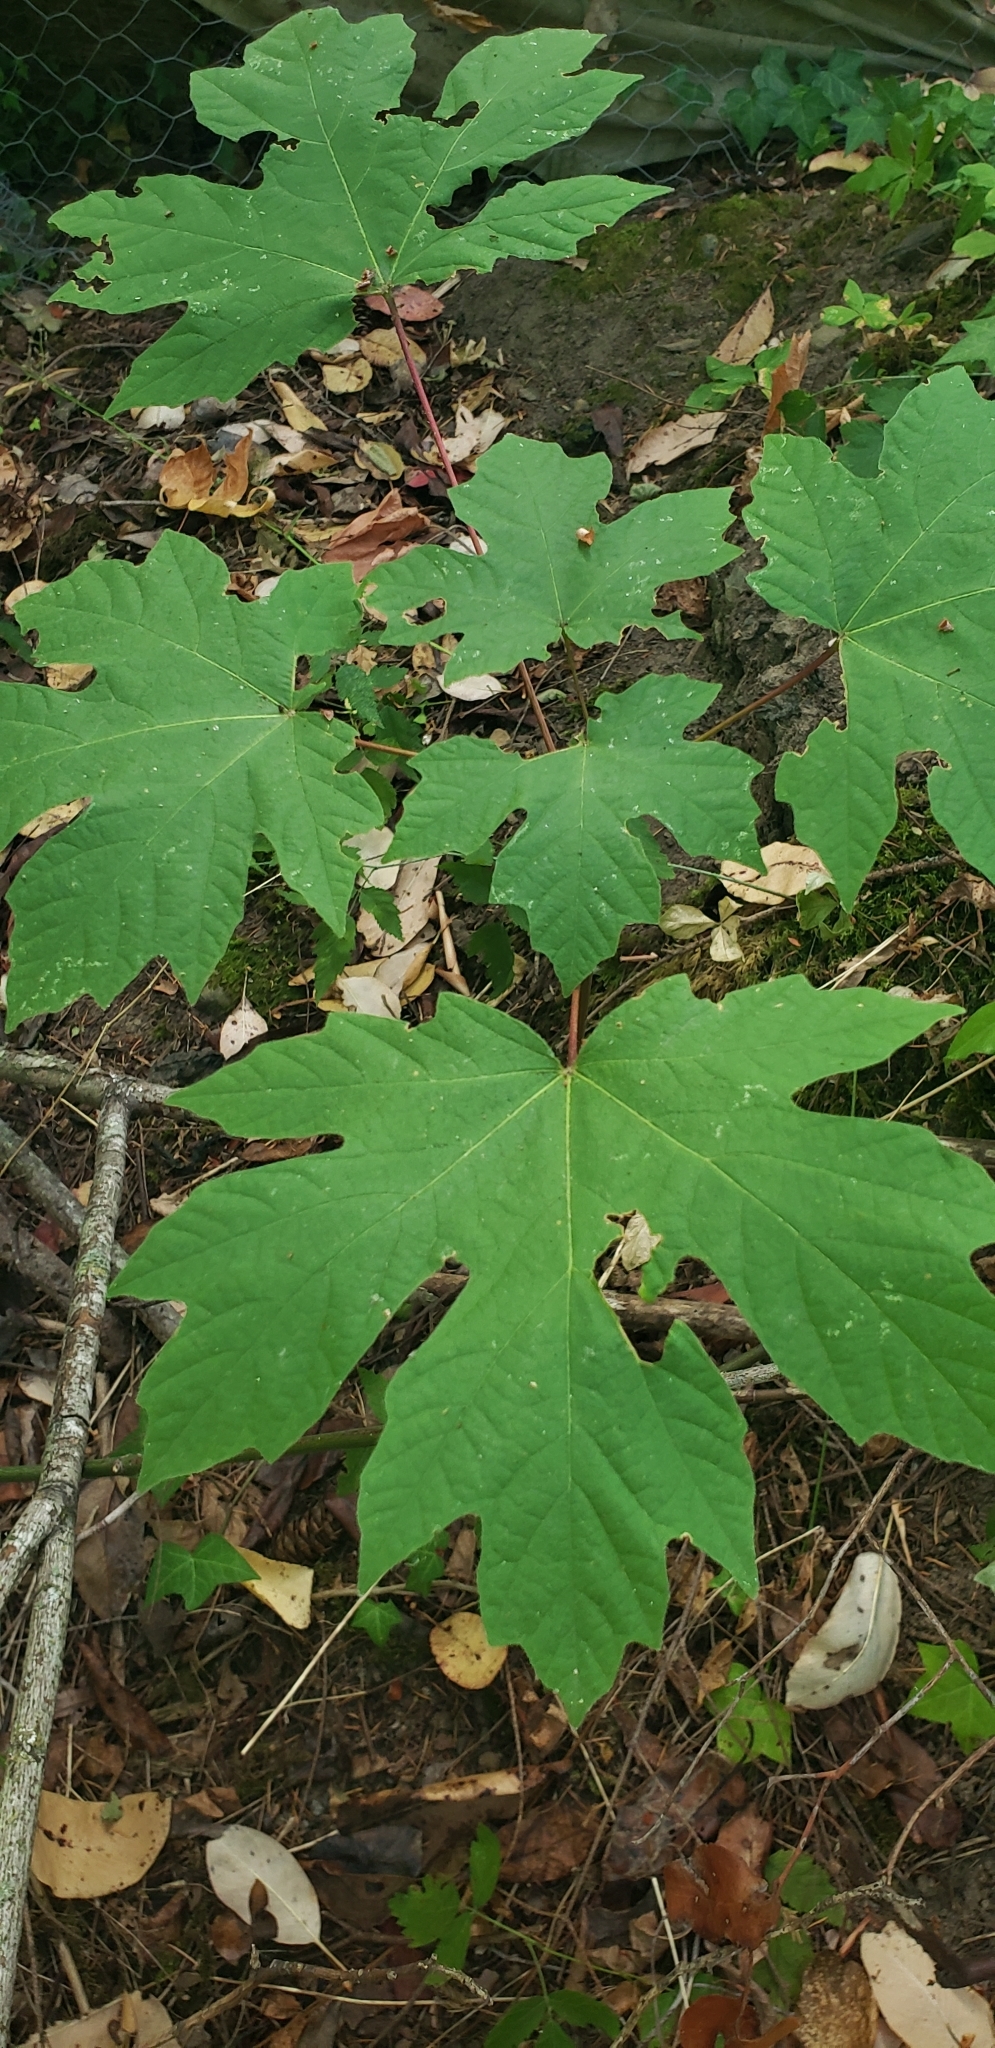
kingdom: Plantae
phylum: Tracheophyta
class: Magnoliopsida
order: Sapindales
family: Sapindaceae
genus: Acer
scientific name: Acer macrophyllum
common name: Oregon maple
